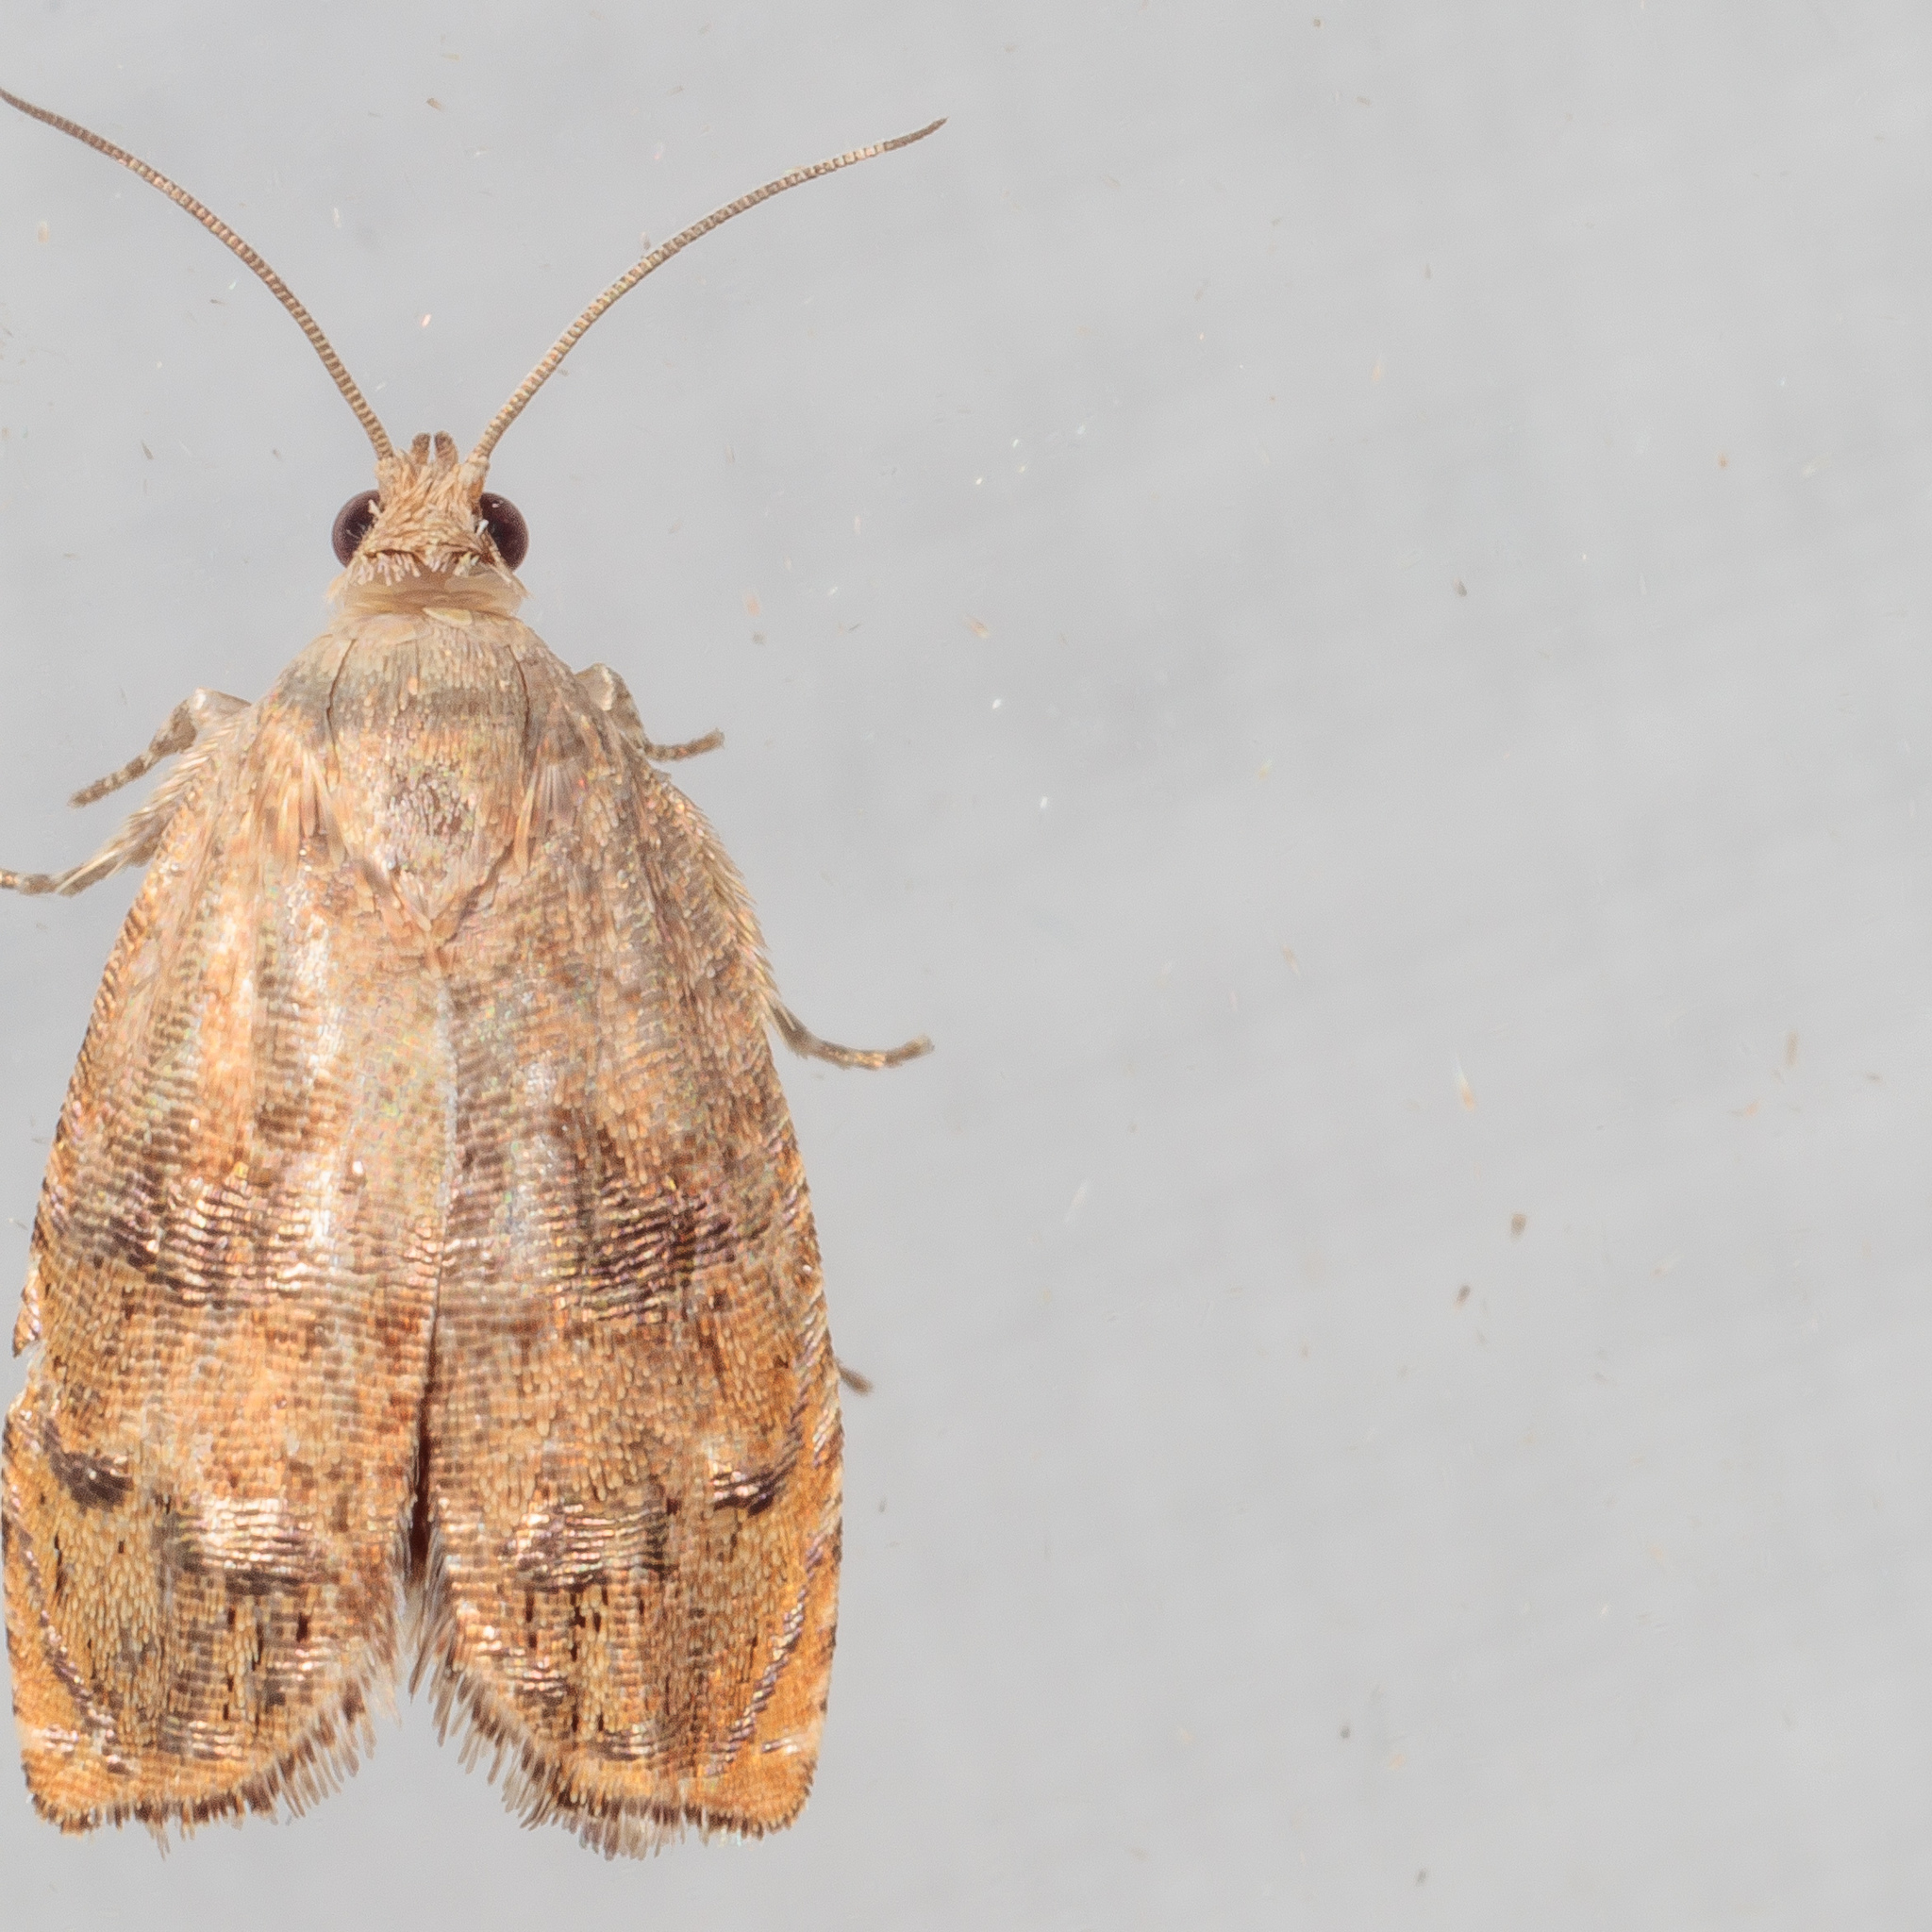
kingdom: Animalia
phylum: Arthropoda
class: Insecta
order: Lepidoptera
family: Tortricidae
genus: Cydia
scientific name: Cydia latiferreana
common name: Filbertworm moth
